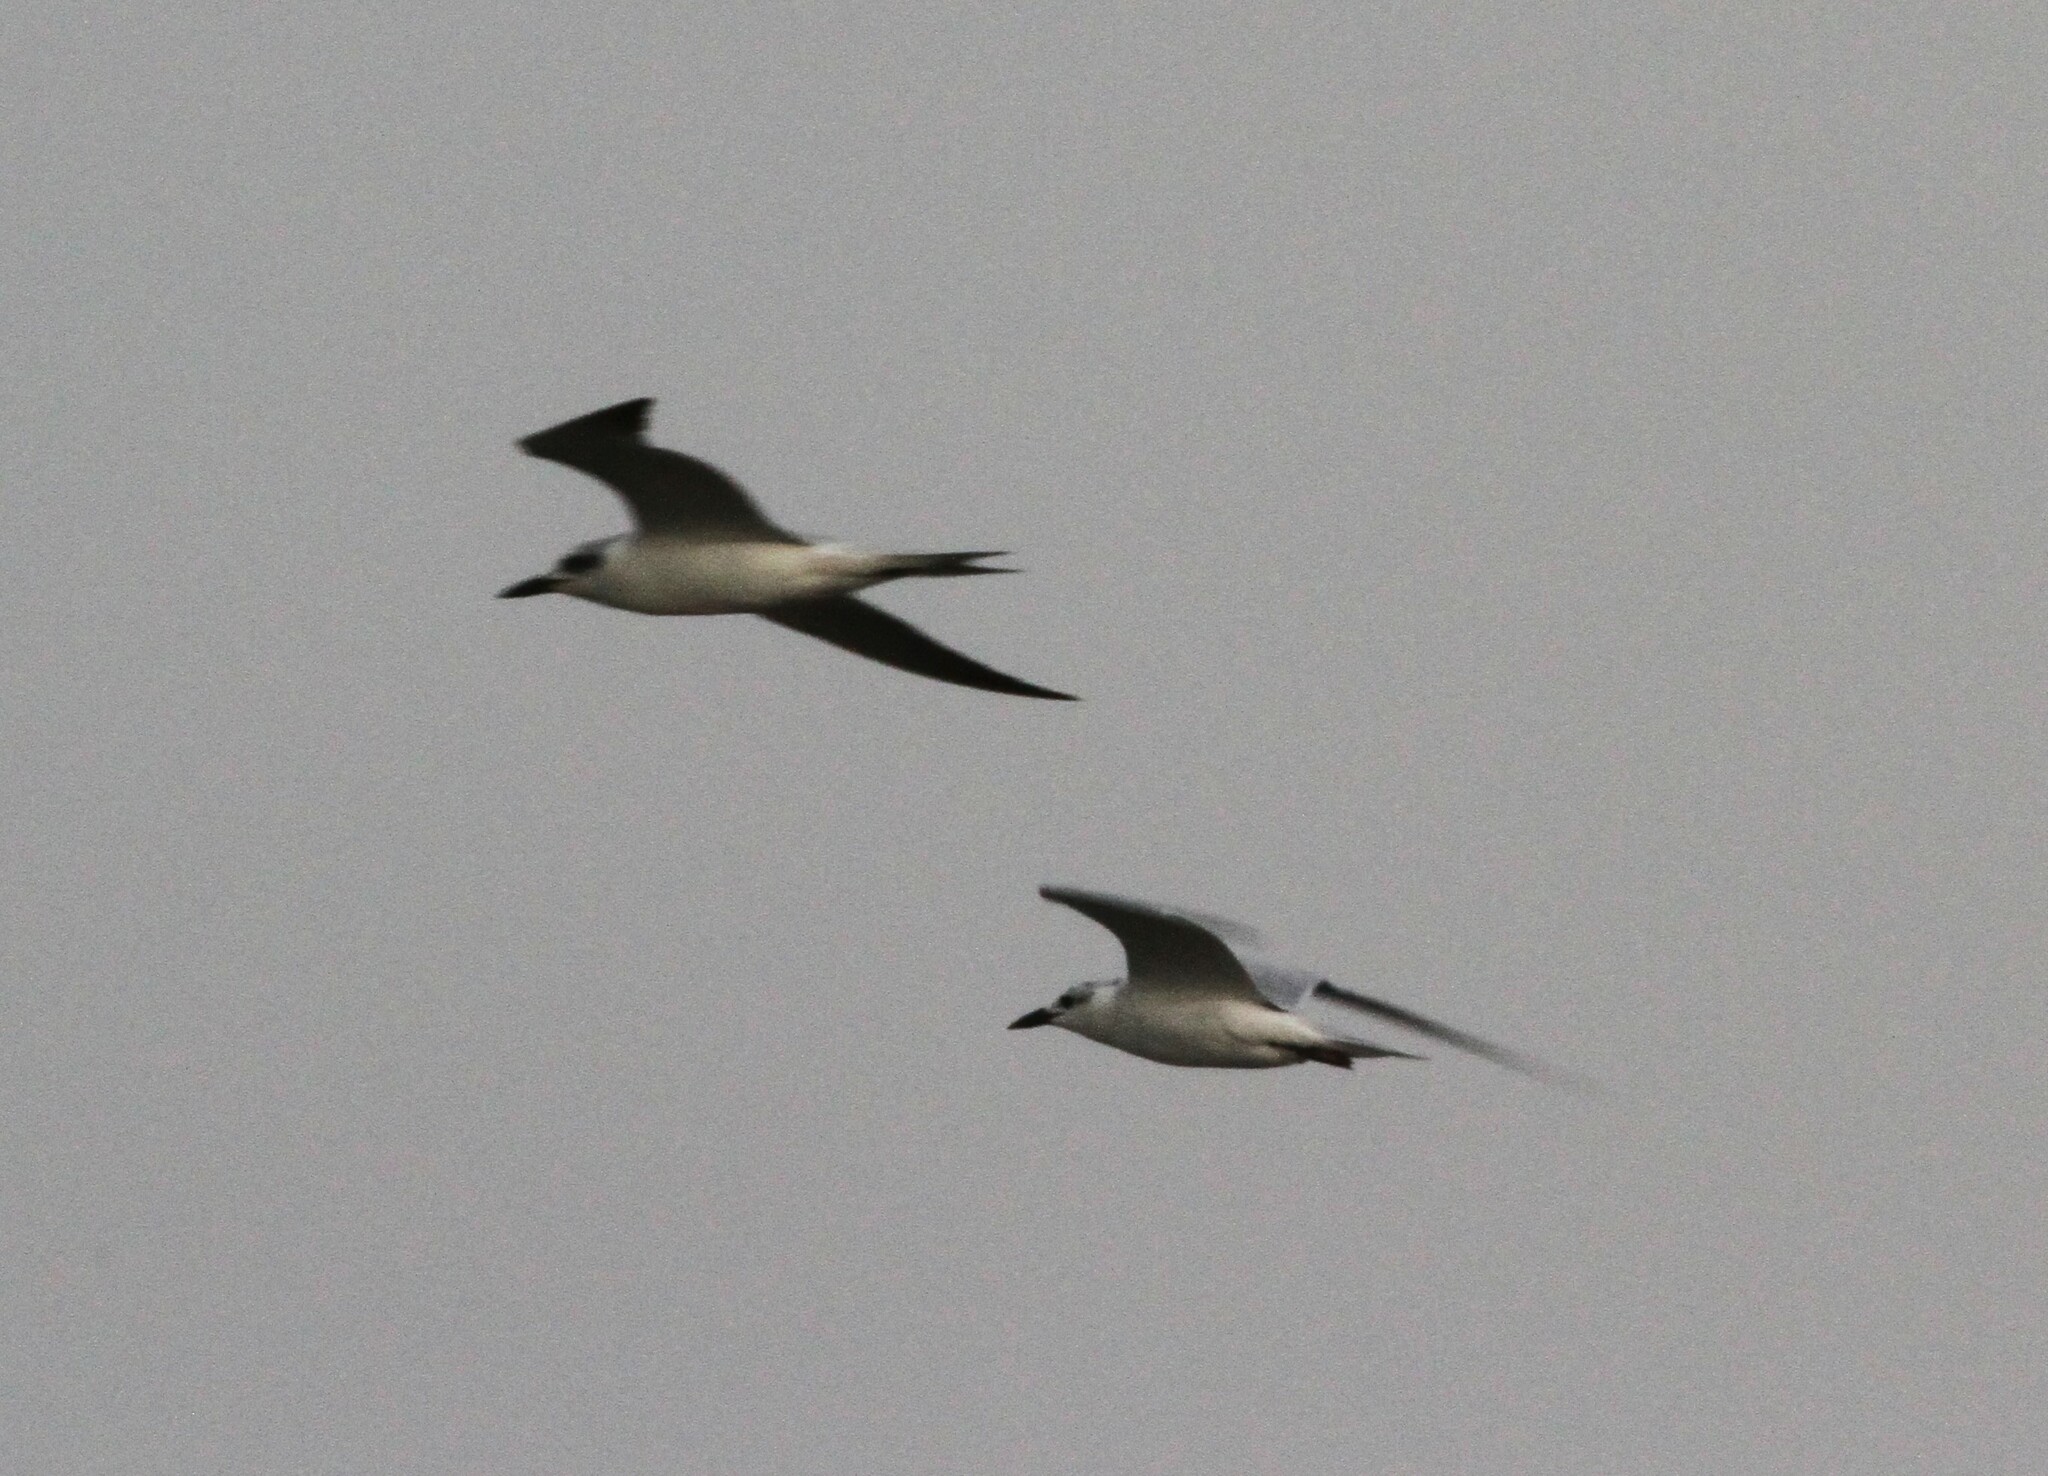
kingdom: Animalia
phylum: Chordata
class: Aves
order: Charadriiformes
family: Laridae
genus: Gelochelidon
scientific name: Gelochelidon nilotica
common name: Gull-billed tern
